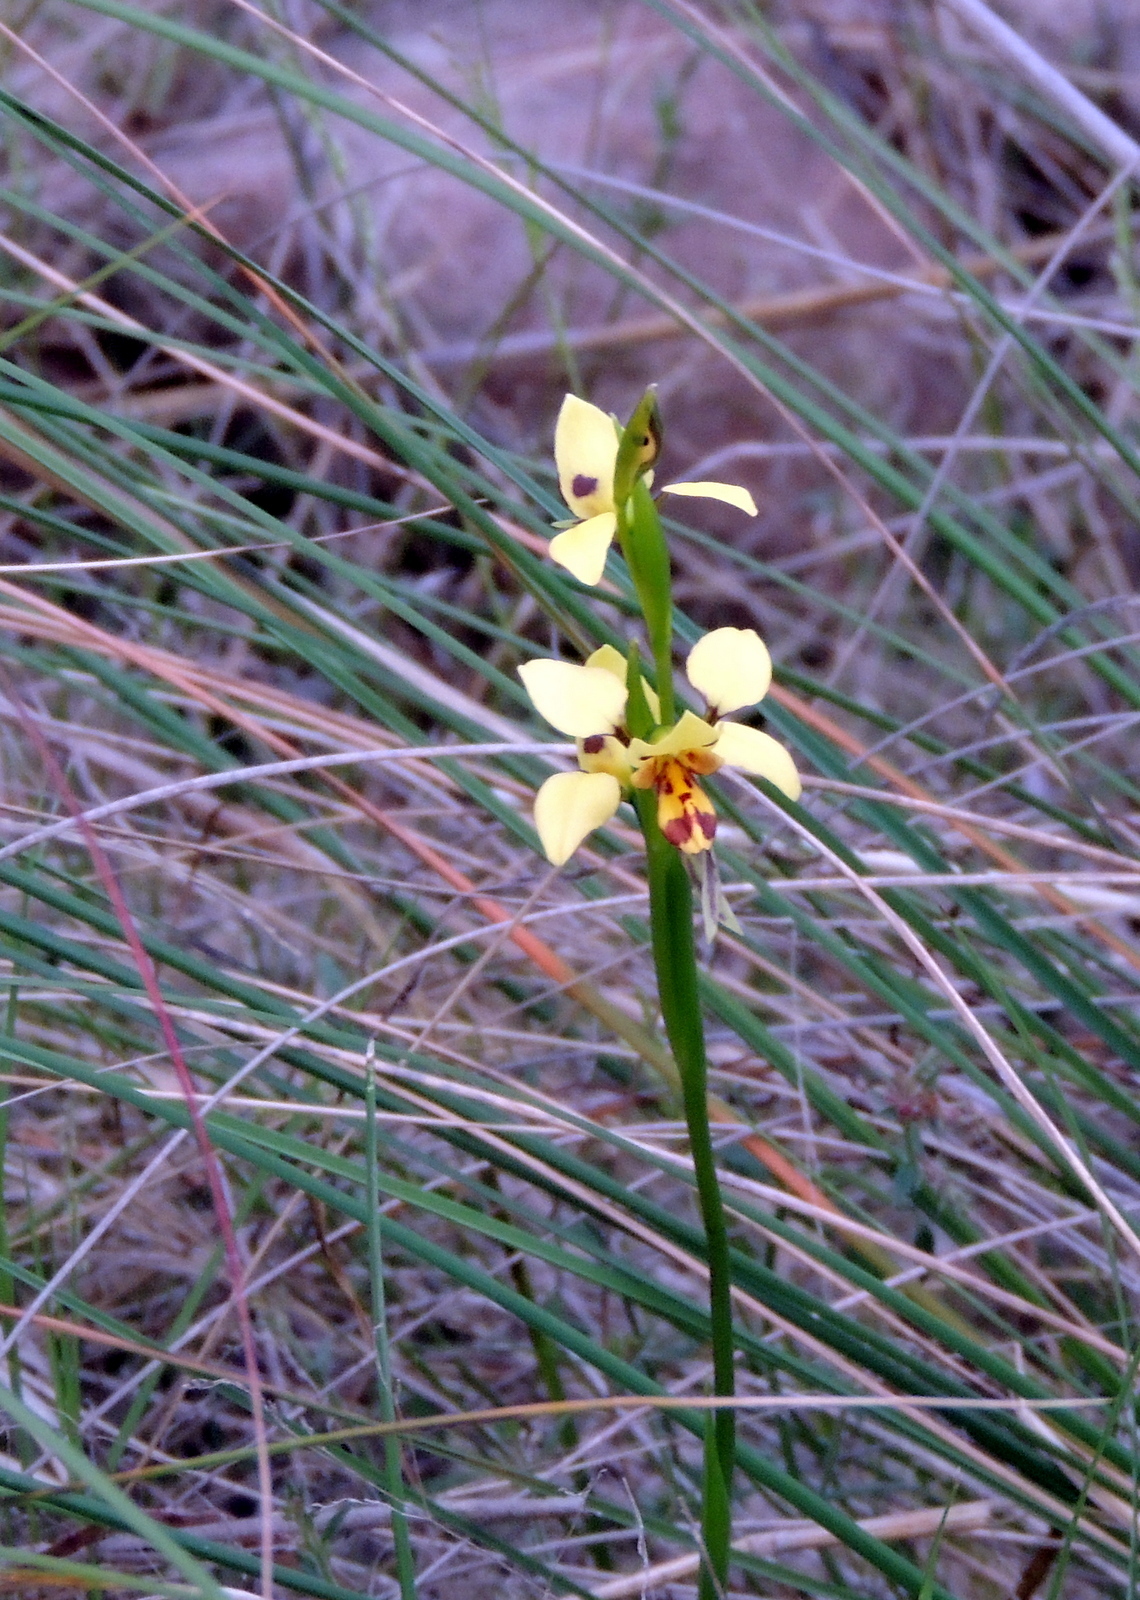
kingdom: Plantae
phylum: Tracheophyta
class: Liliopsida
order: Asparagales
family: Orchidaceae
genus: Diuris
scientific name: Diuris sulphurea
